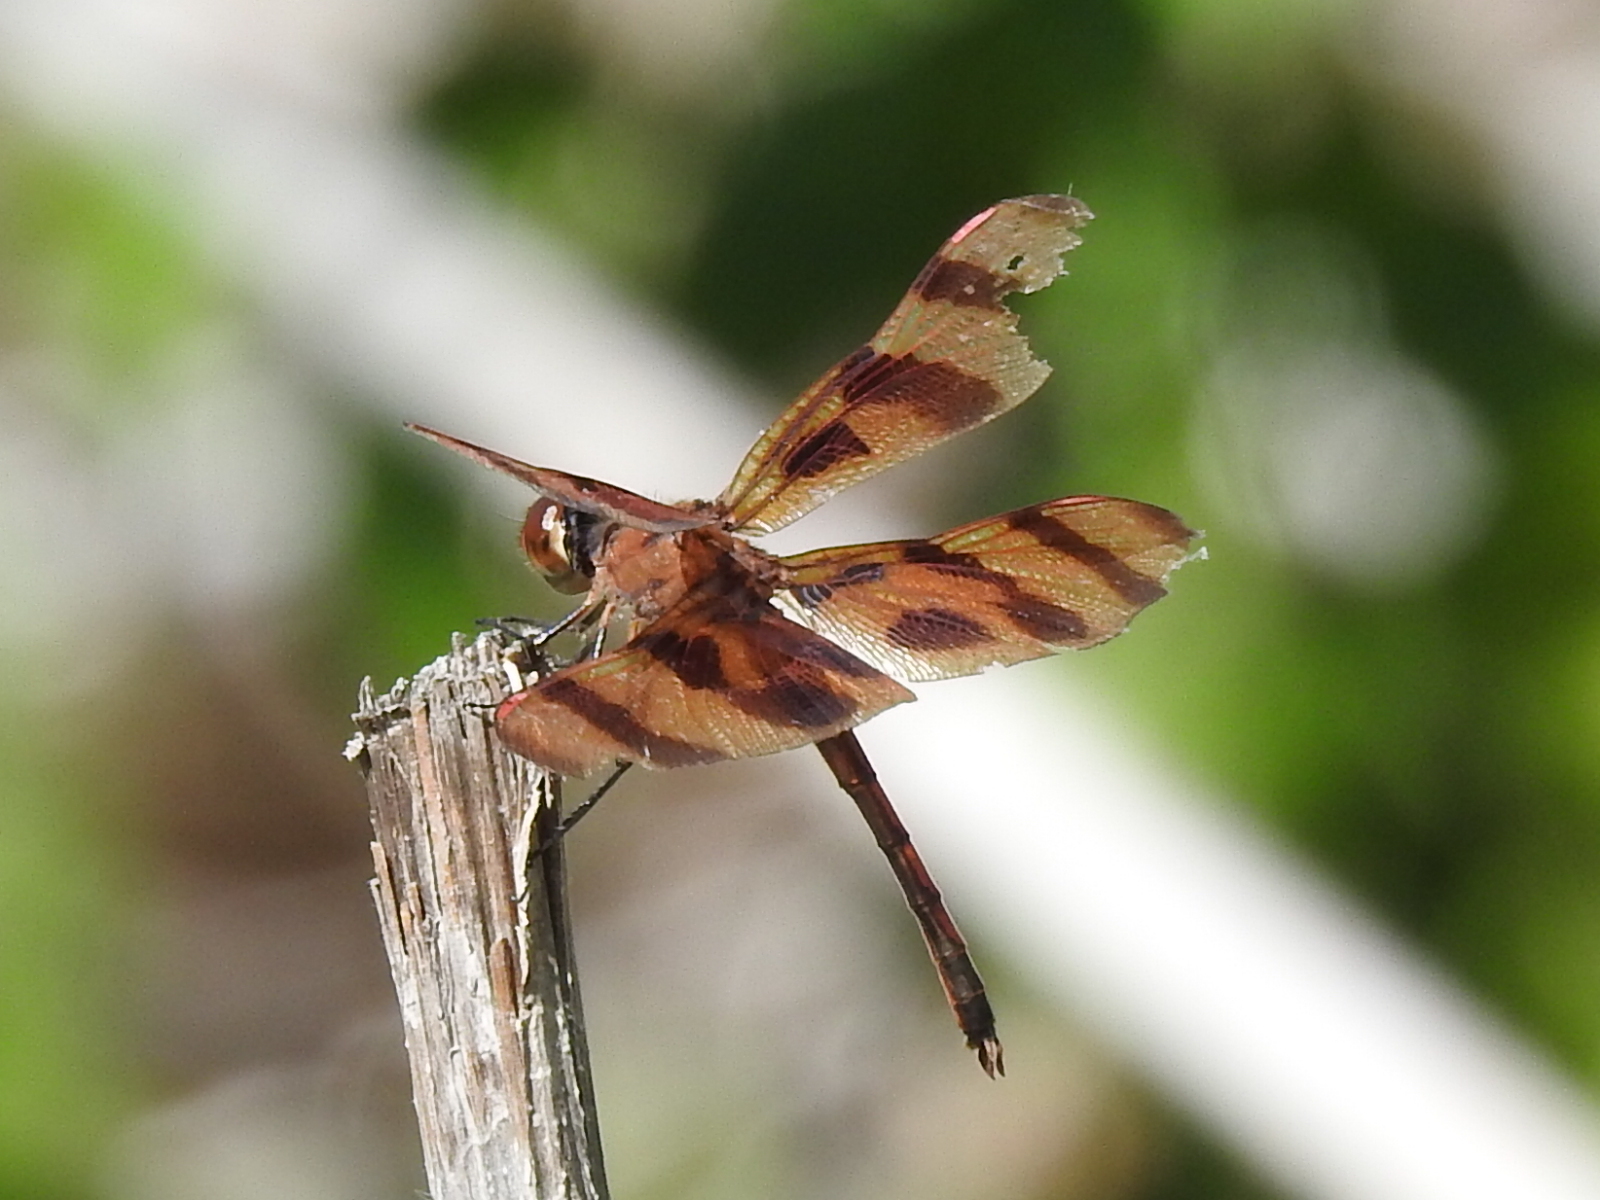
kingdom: Animalia
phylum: Arthropoda
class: Insecta
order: Odonata
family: Libellulidae
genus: Celithemis
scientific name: Celithemis eponina
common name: Halloween pennant
